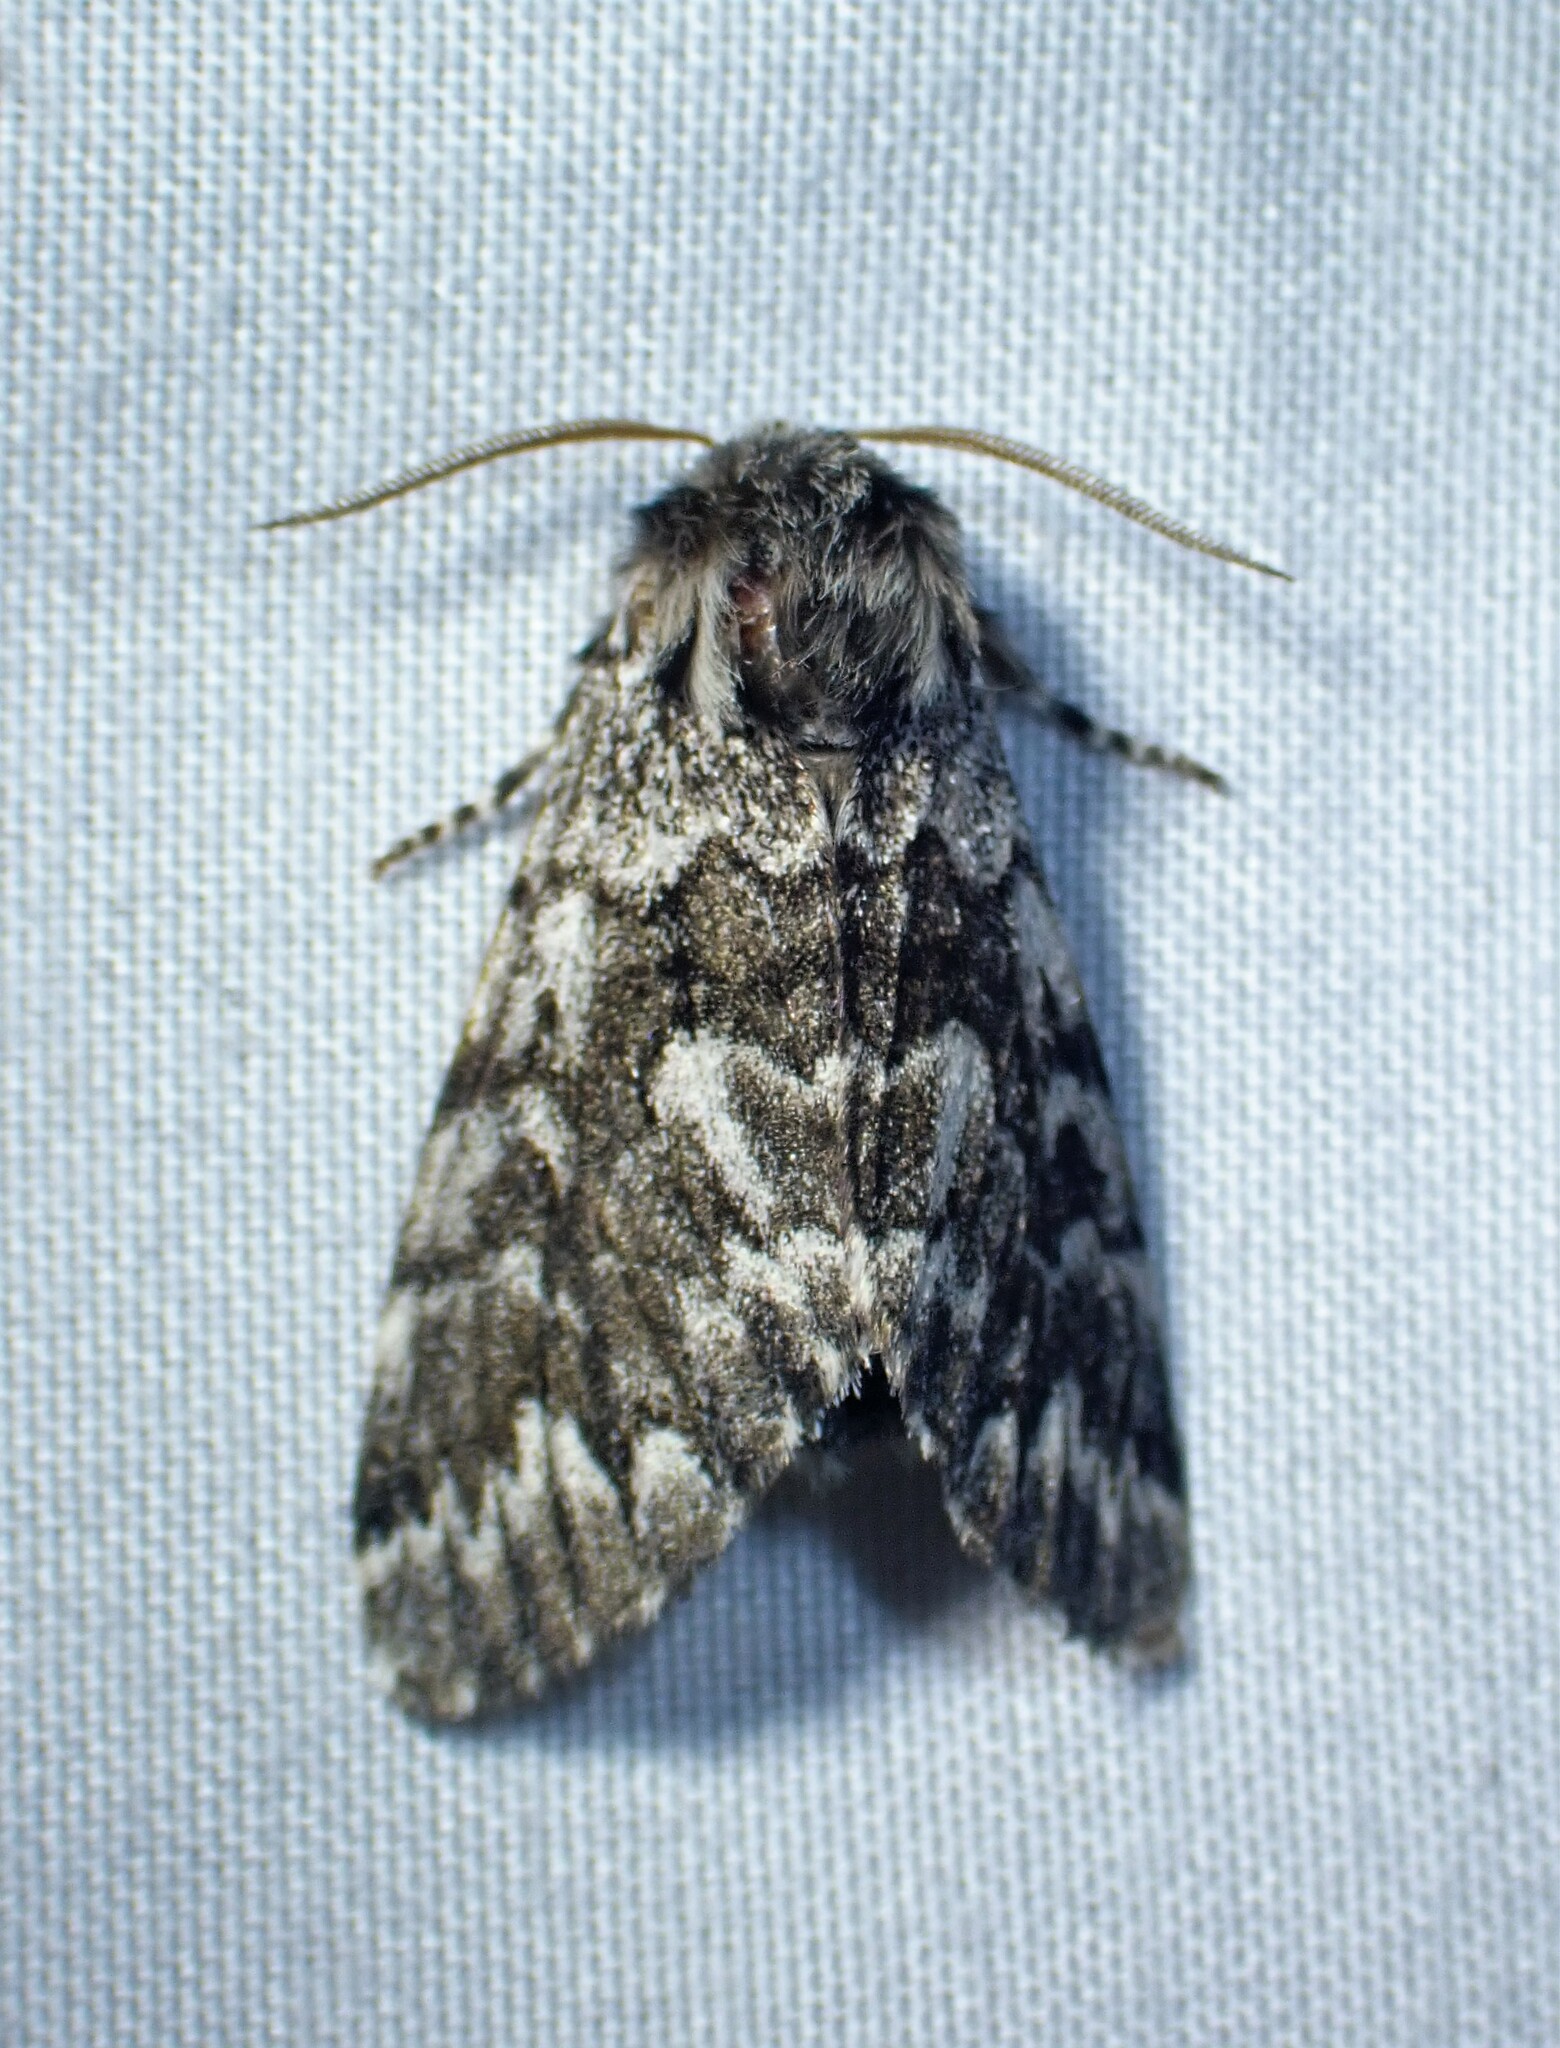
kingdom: Animalia
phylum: Arthropoda
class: Insecta
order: Lepidoptera
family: Noctuidae
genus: Panthea
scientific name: Panthea acronyctoides
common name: Black zigzag moth
